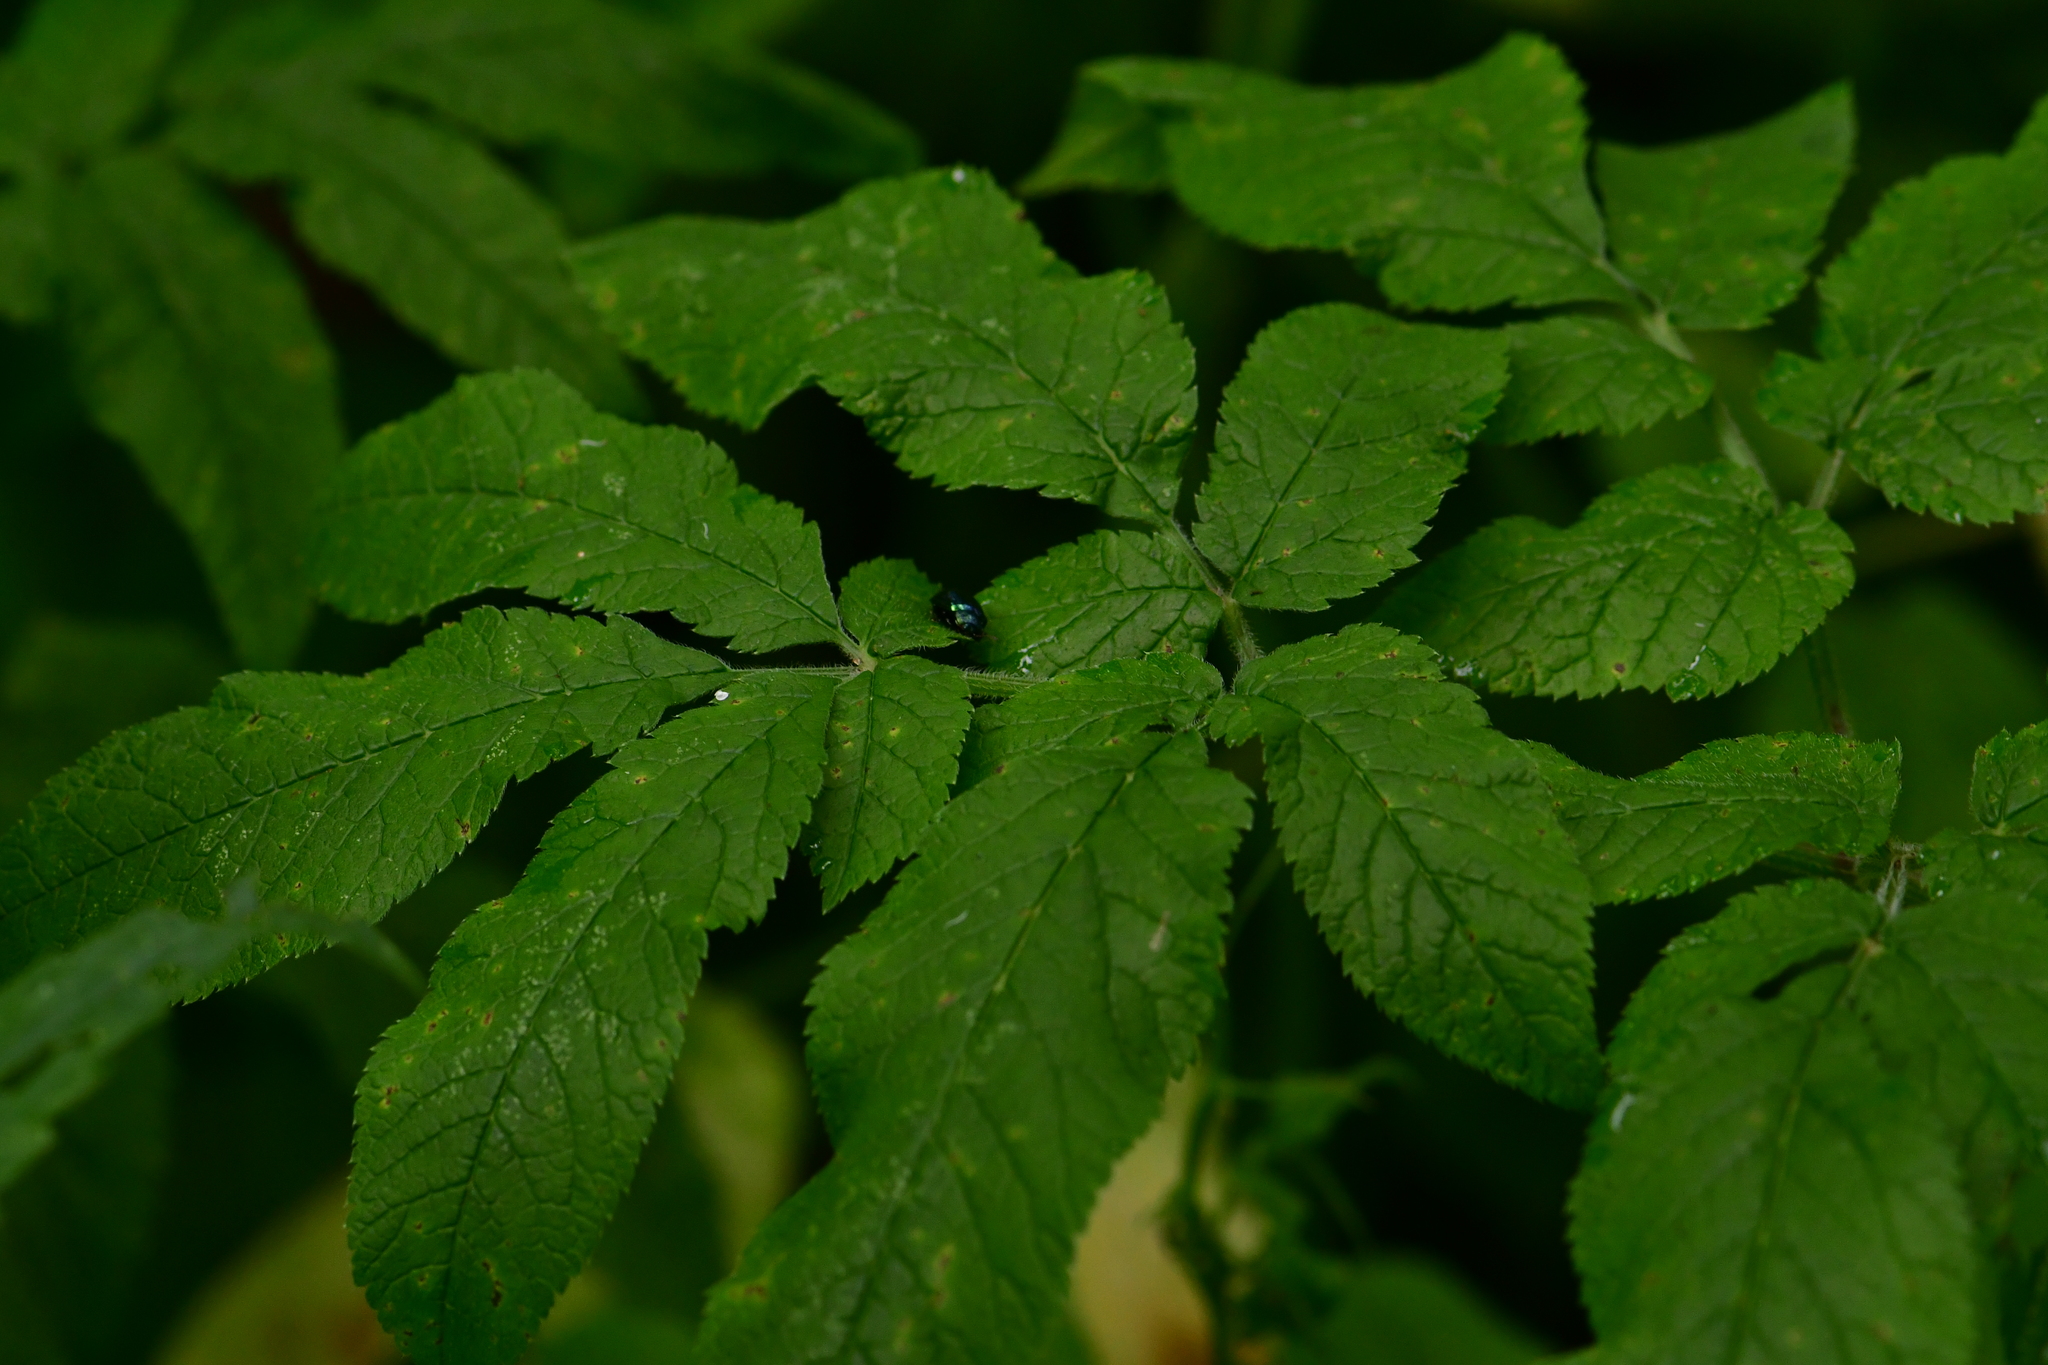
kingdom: Animalia
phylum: Arthropoda
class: Insecta
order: Coleoptera
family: Chrysomelidae
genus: Plagiosterna
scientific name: Plagiosterna aenea
